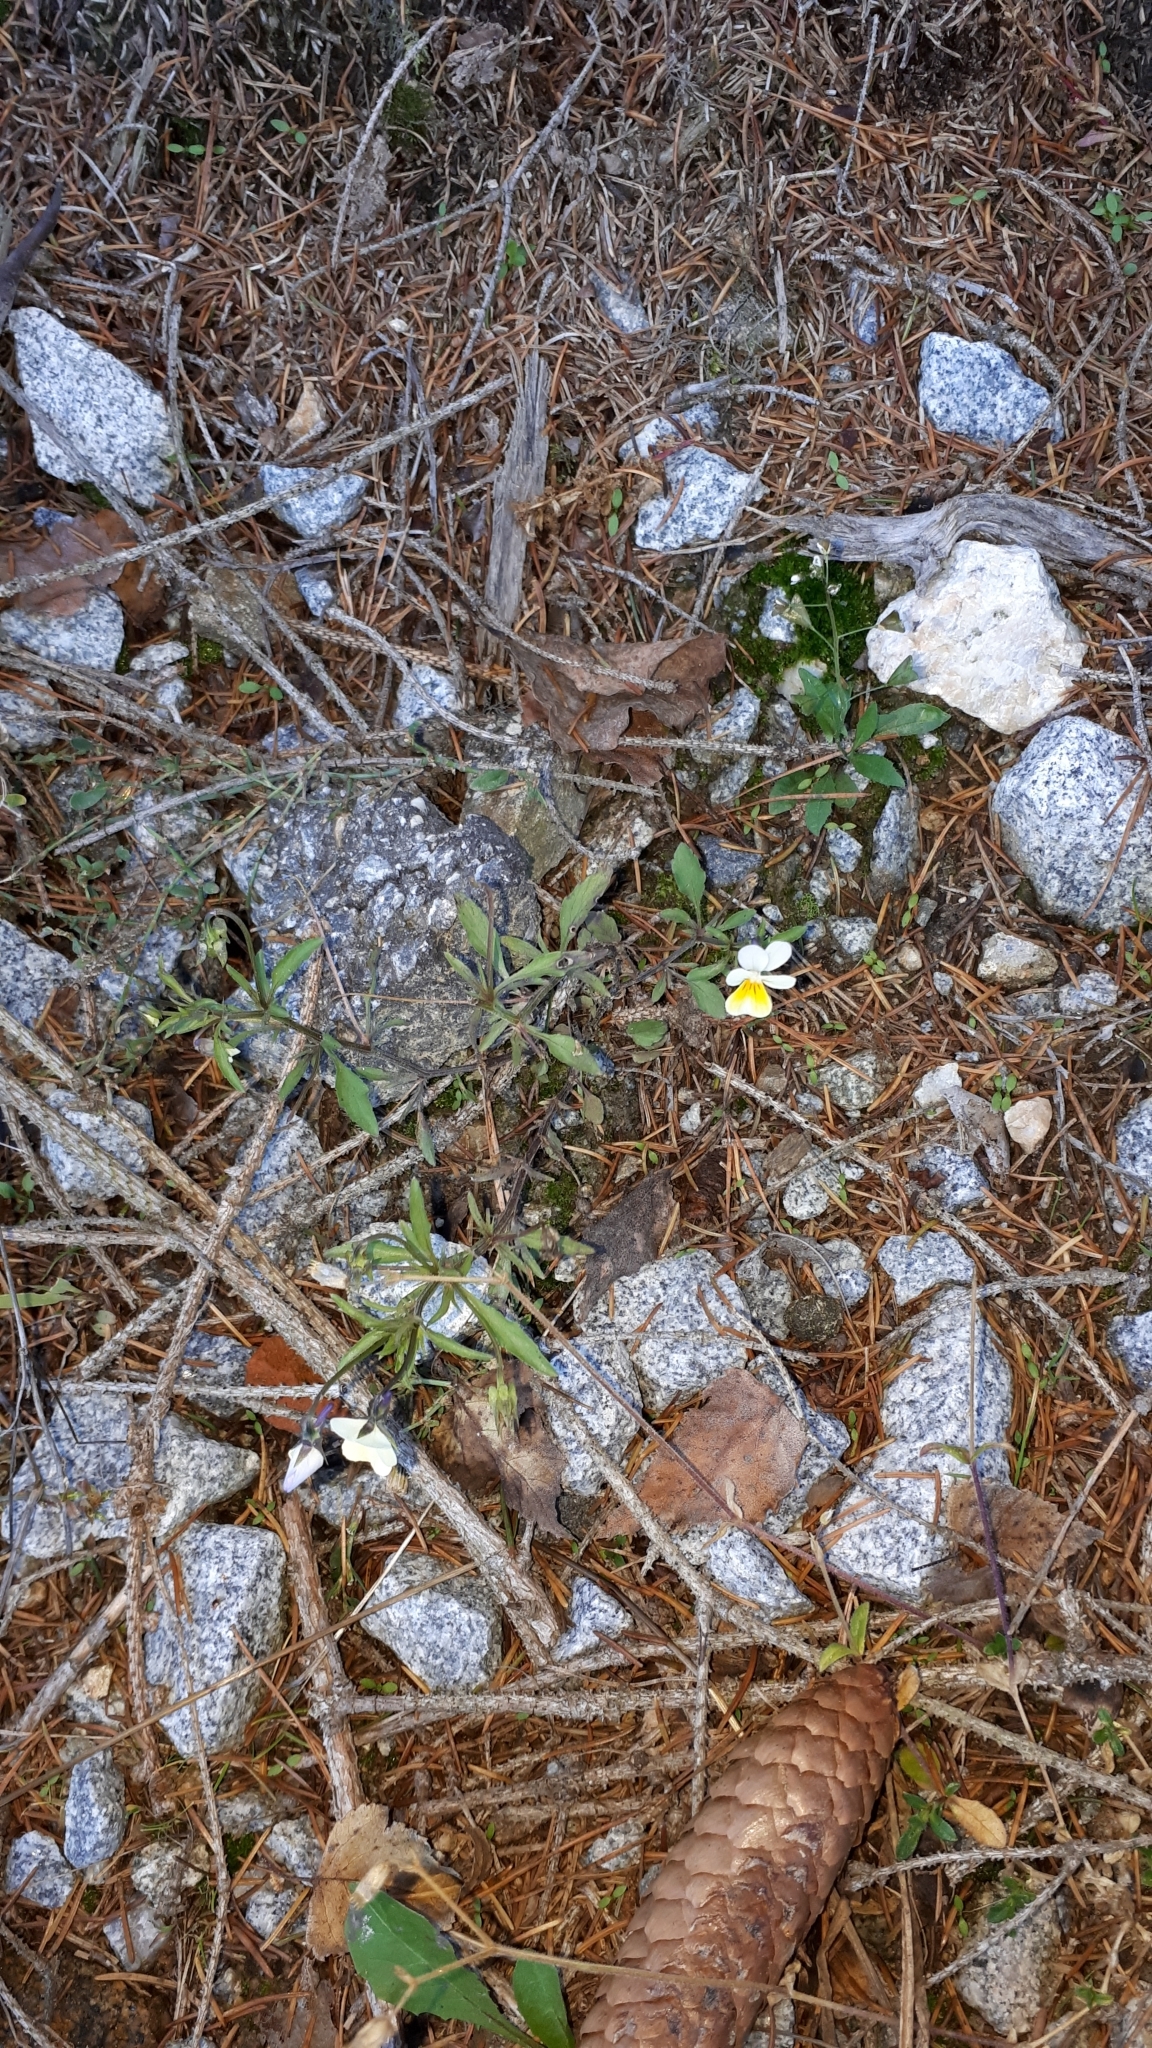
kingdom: Plantae
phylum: Tracheophyta
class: Magnoliopsida
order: Malpighiales
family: Violaceae
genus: Viola
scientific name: Viola arvensis
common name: Field pansy
